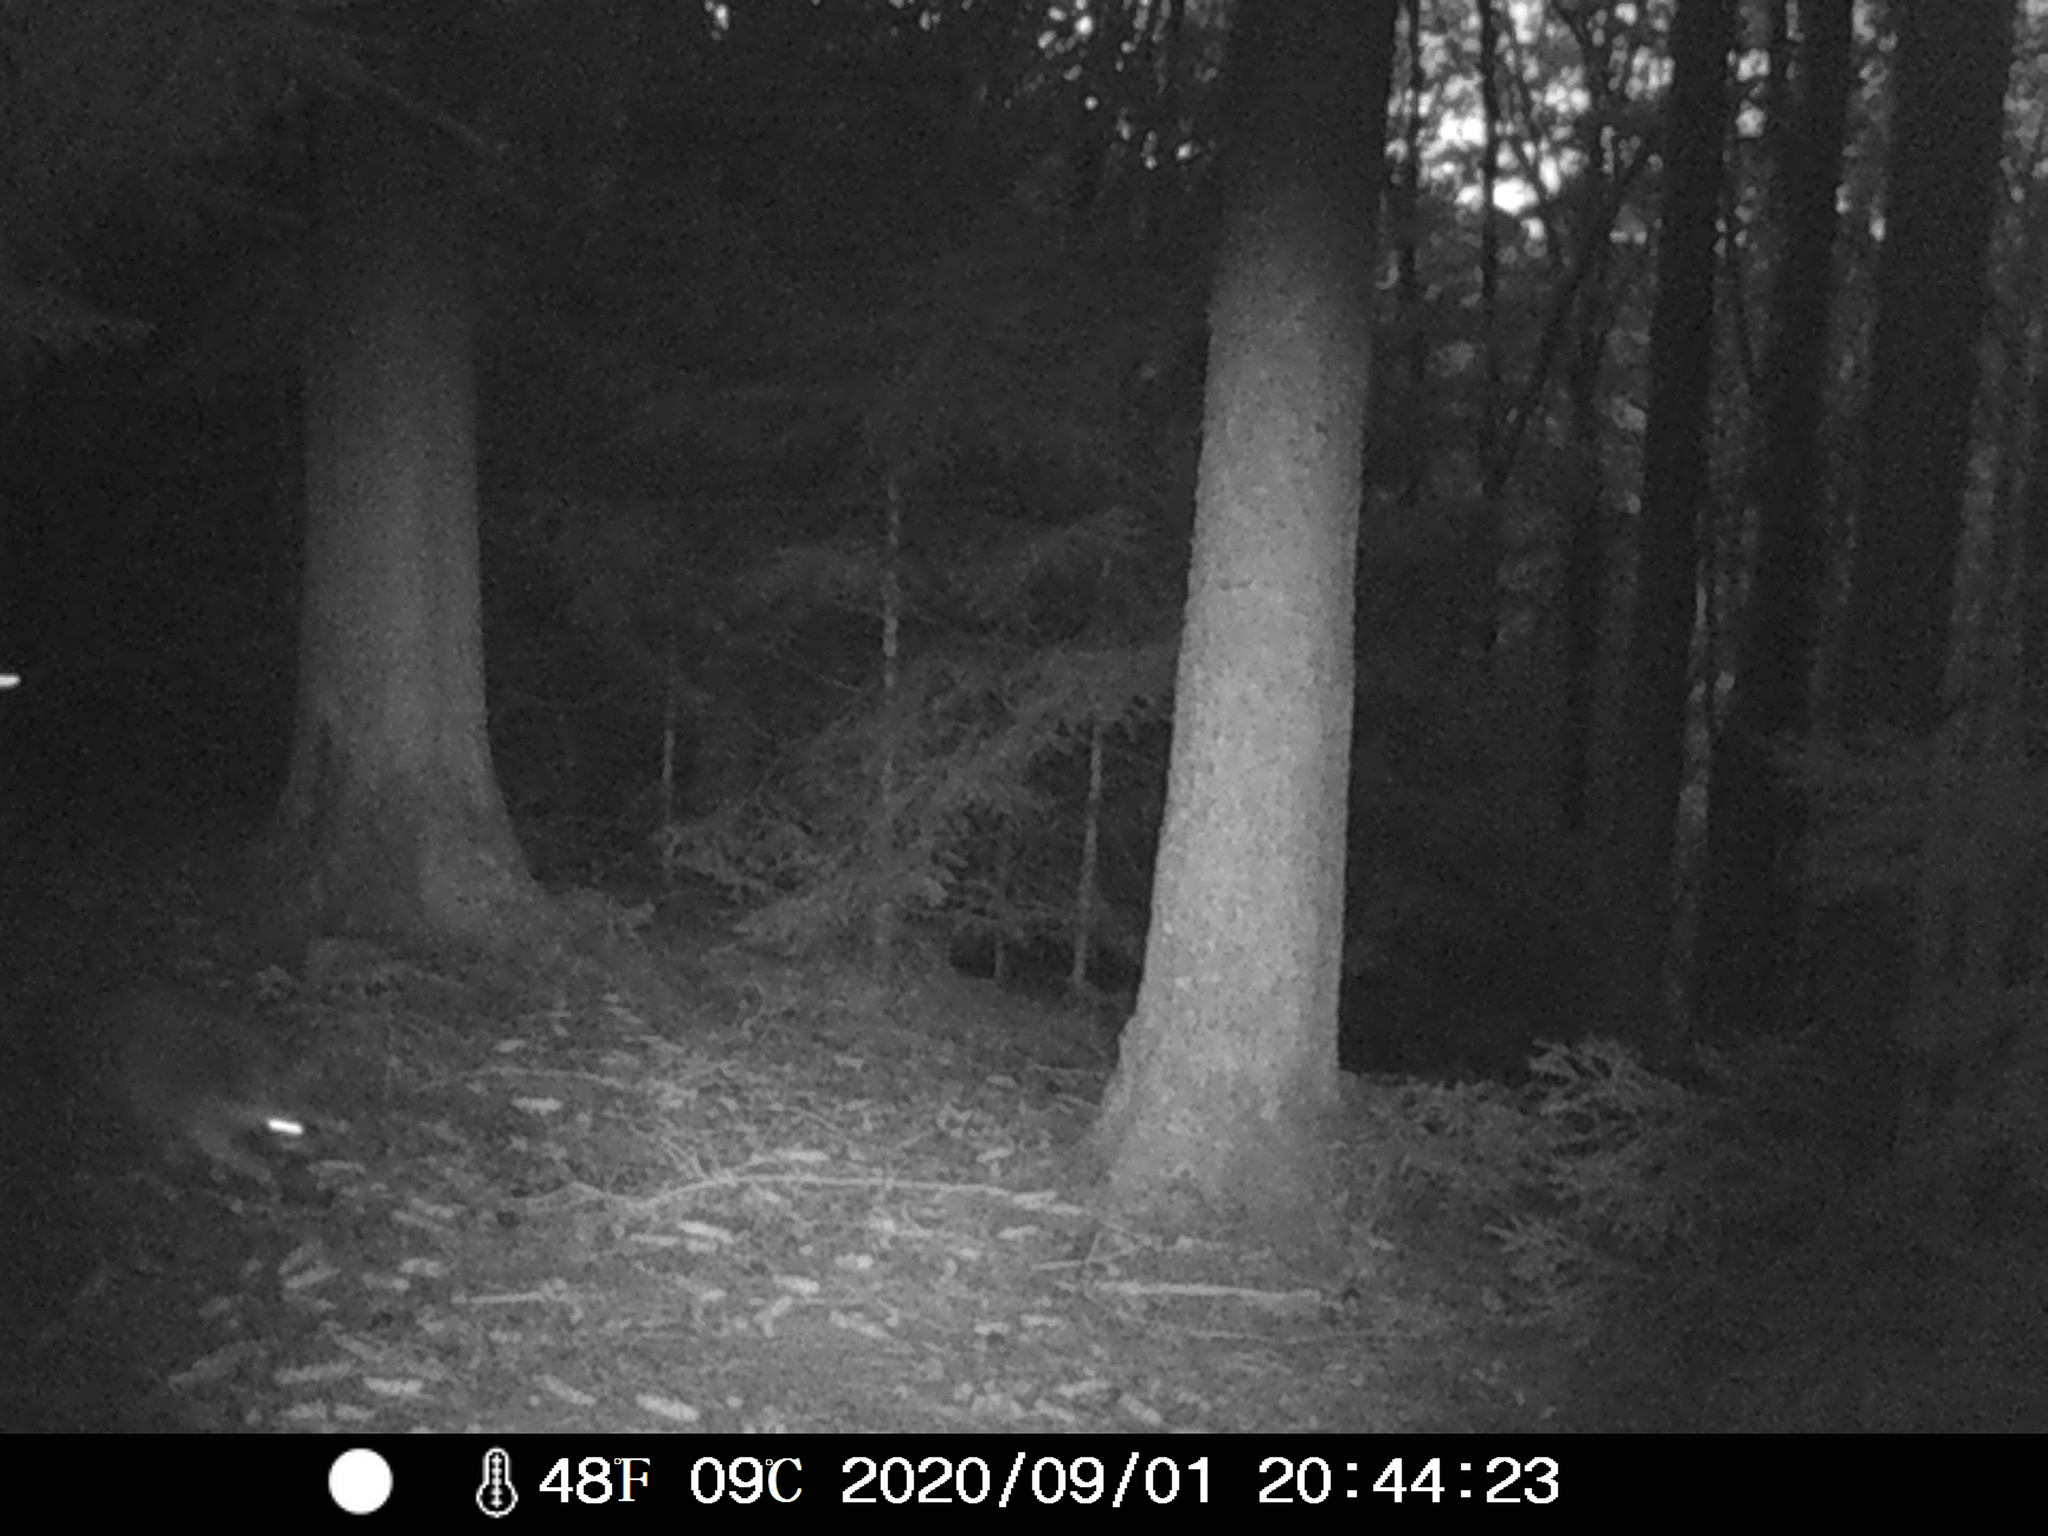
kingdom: Animalia
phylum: Chordata
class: Mammalia
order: Carnivora
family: Procyonidae
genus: Procyon
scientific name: Procyon lotor
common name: Raccoon
